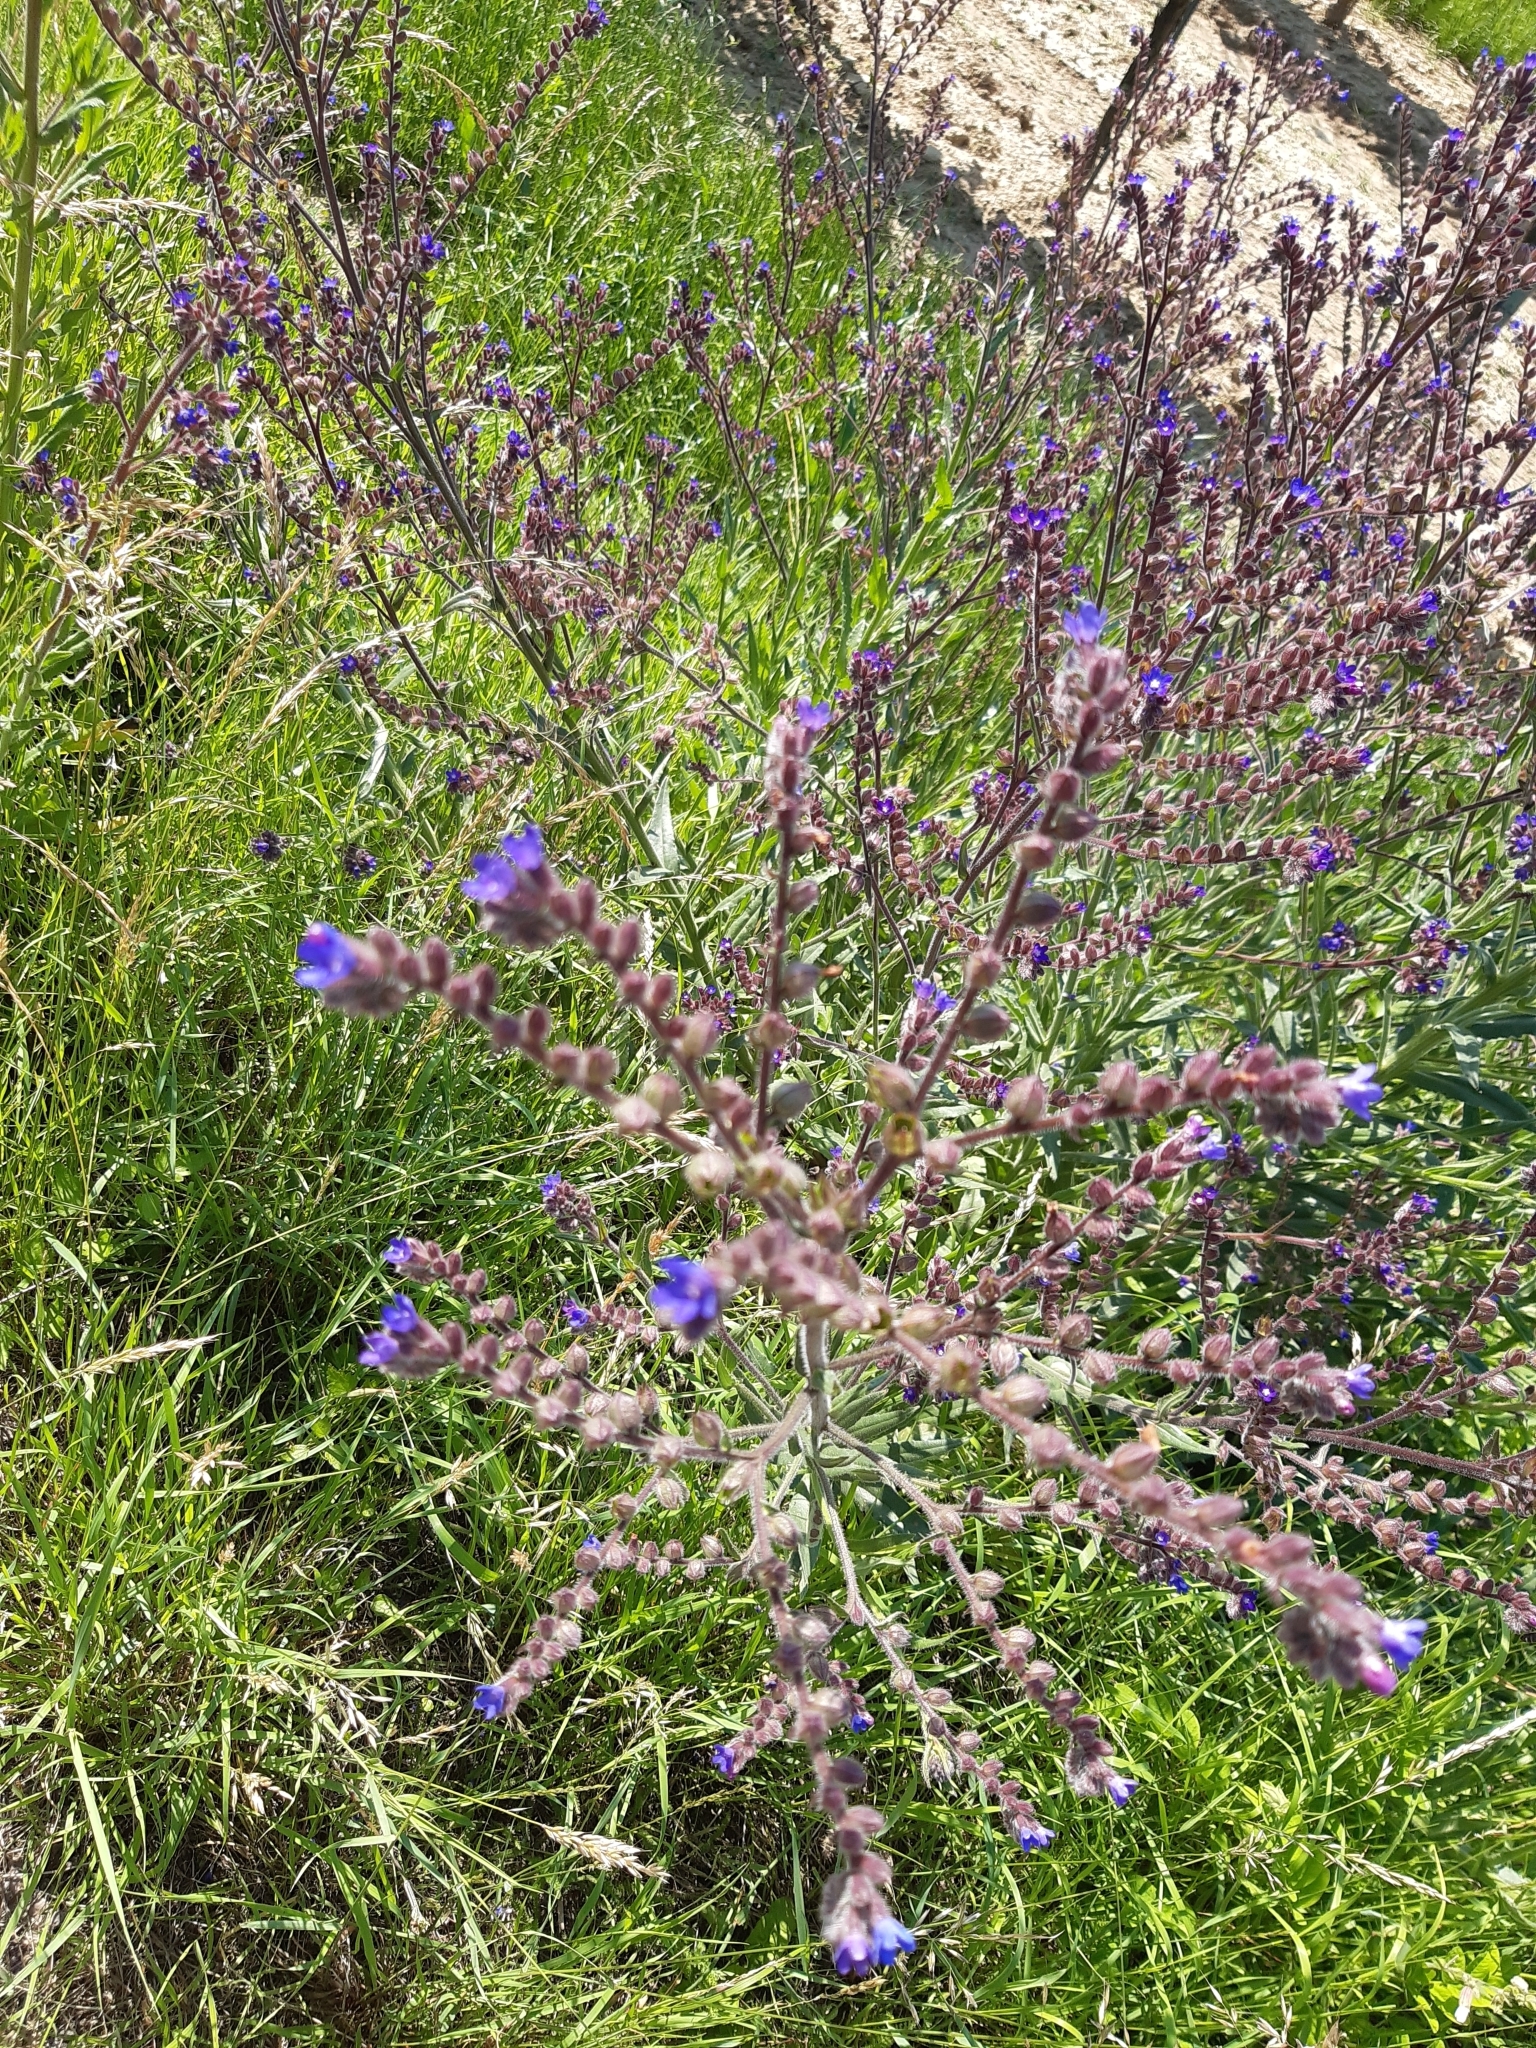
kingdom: Plantae
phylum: Tracheophyta
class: Magnoliopsida
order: Boraginales
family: Boraginaceae
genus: Anchusa
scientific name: Anchusa officinalis
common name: Alkanet
